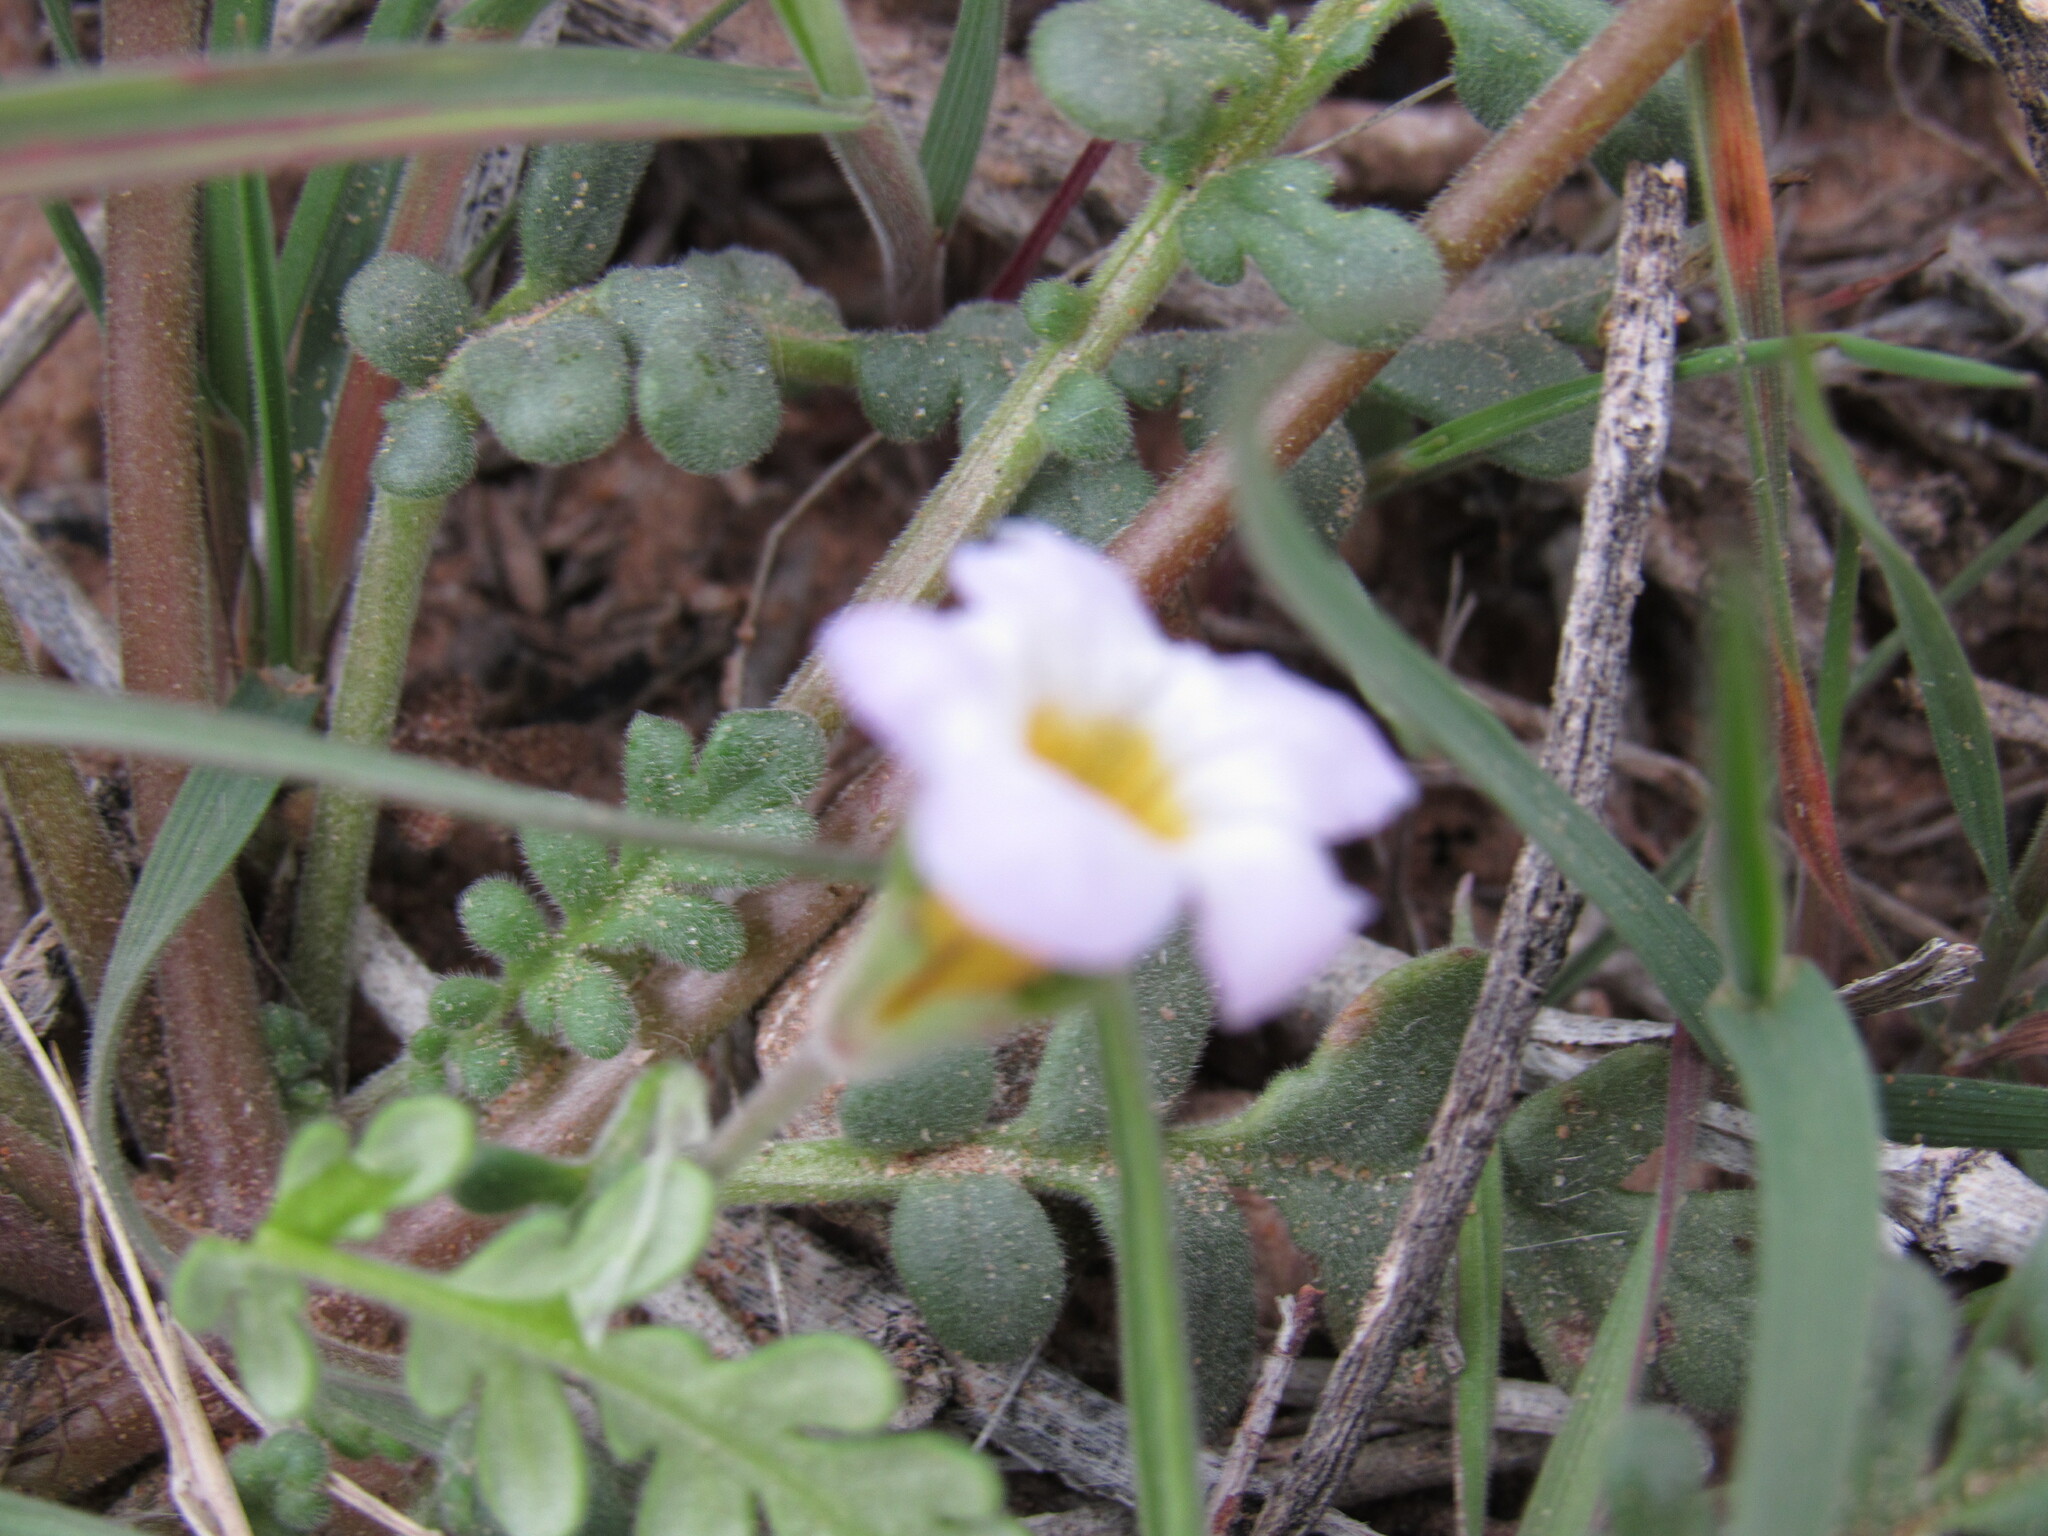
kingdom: Plantae
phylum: Tracheophyta
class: Magnoliopsida
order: Boraginales
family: Hydrophyllaceae
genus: Phacelia
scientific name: Phacelia fremontii
